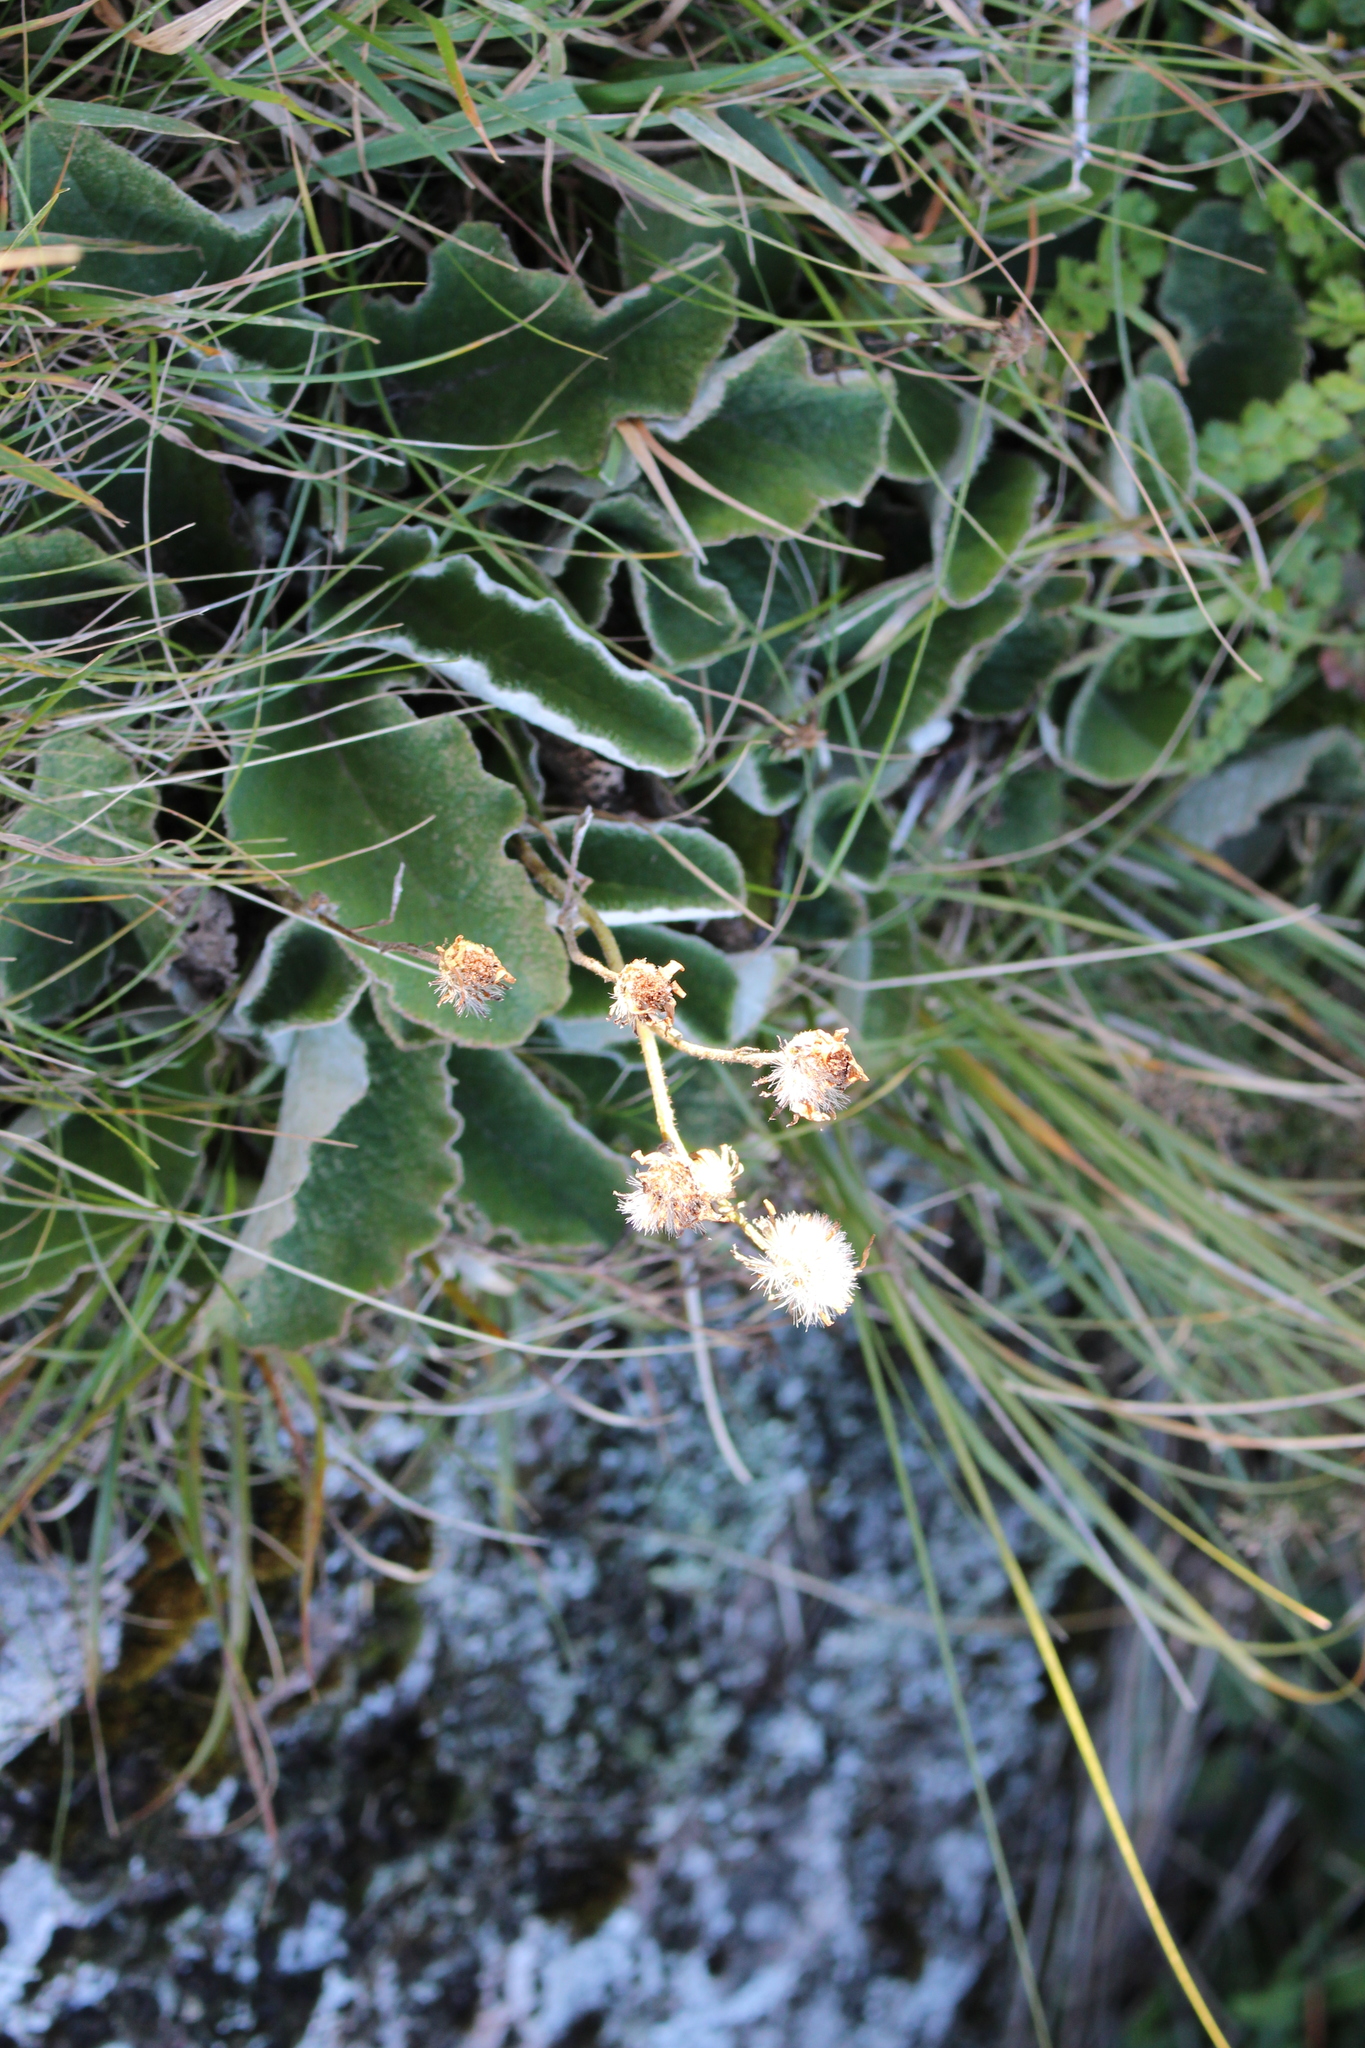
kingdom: Plantae
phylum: Tracheophyta
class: Magnoliopsida
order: Asterales
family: Asteraceae
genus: Brachyglottis
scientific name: Brachyglottis lagopus
